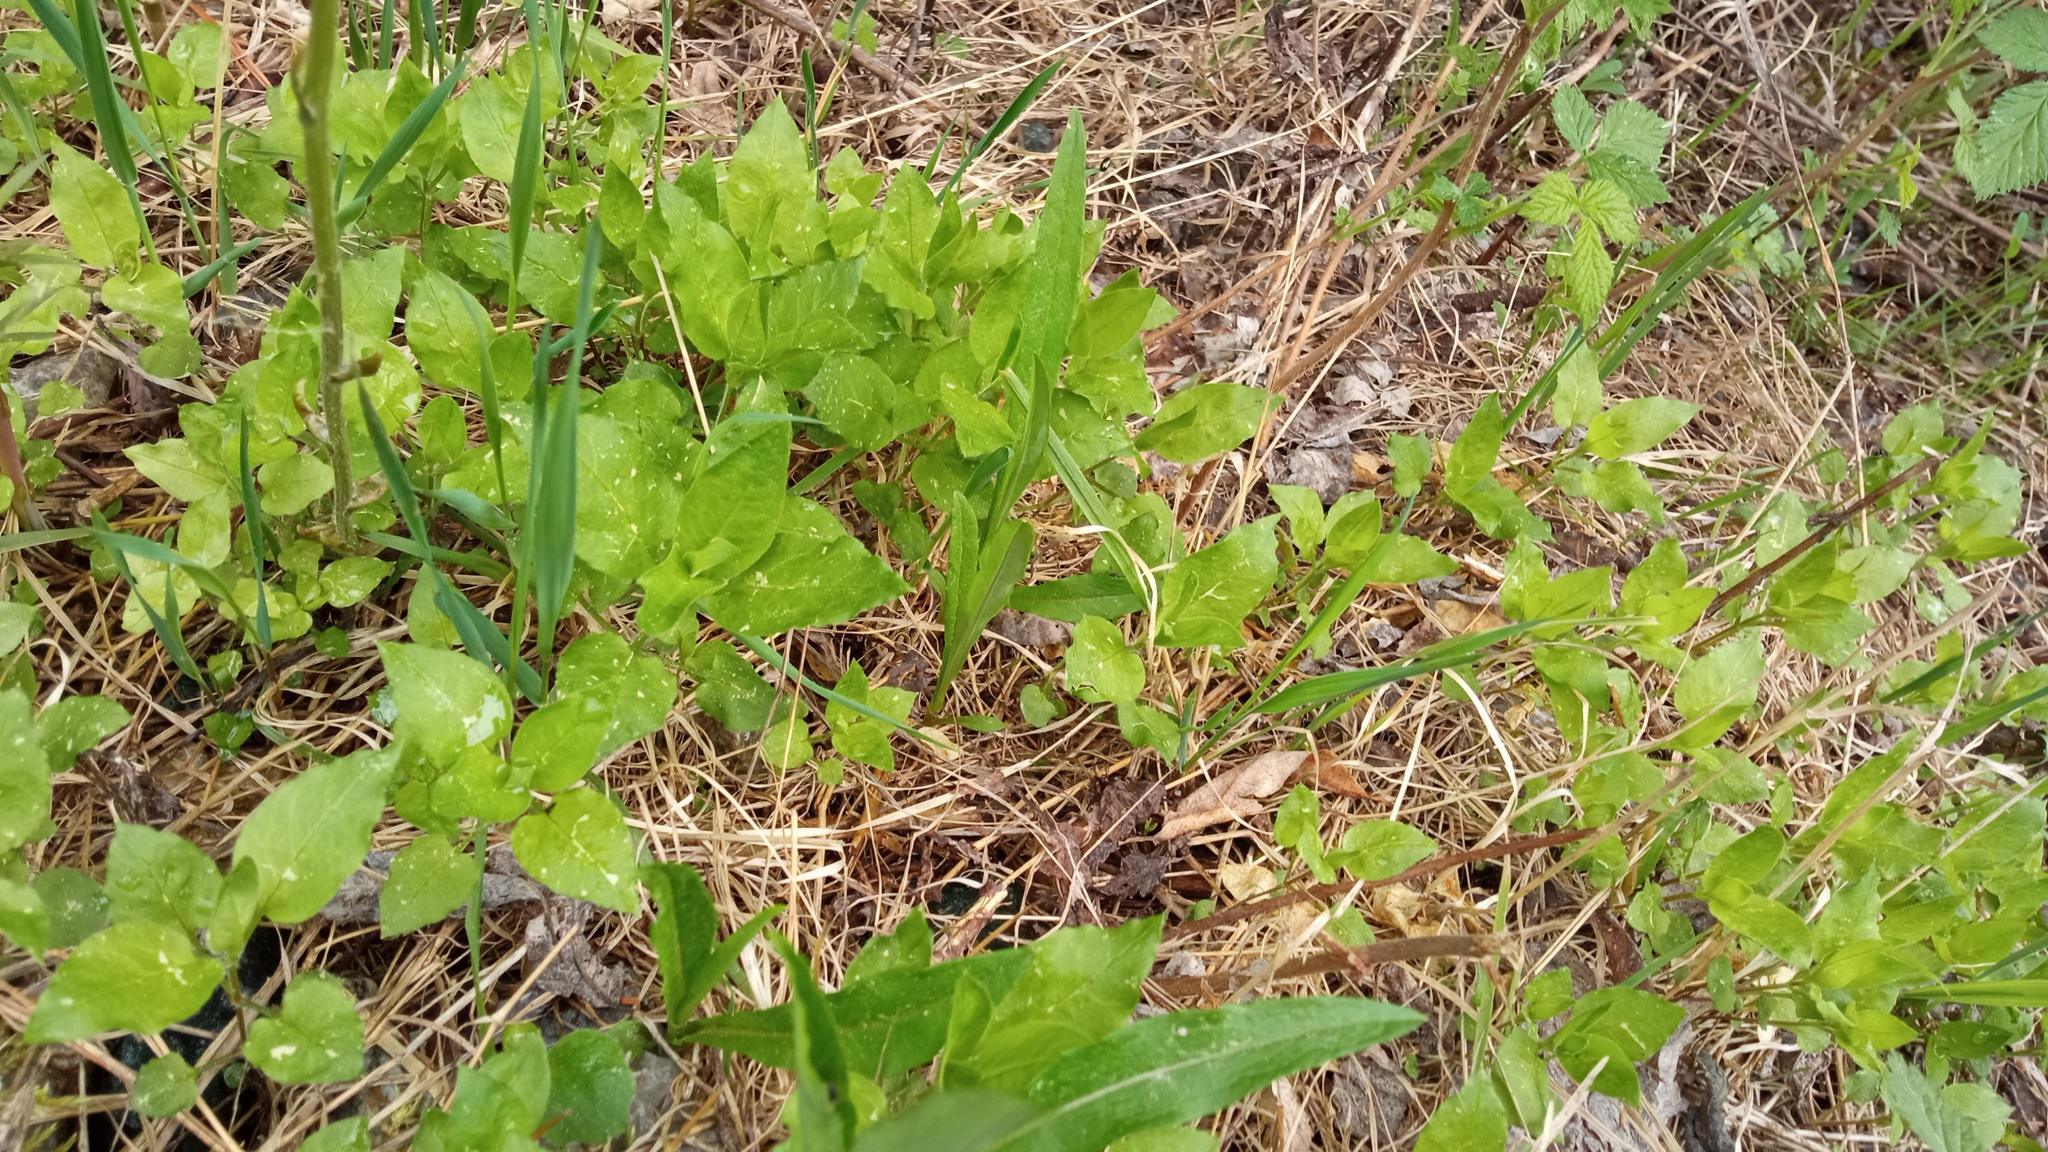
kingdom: Plantae
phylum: Tracheophyta
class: Magnoliopsida
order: Caryophyllales
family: Caryophyllaceae
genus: Stellaria
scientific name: Stellaria bungeana
